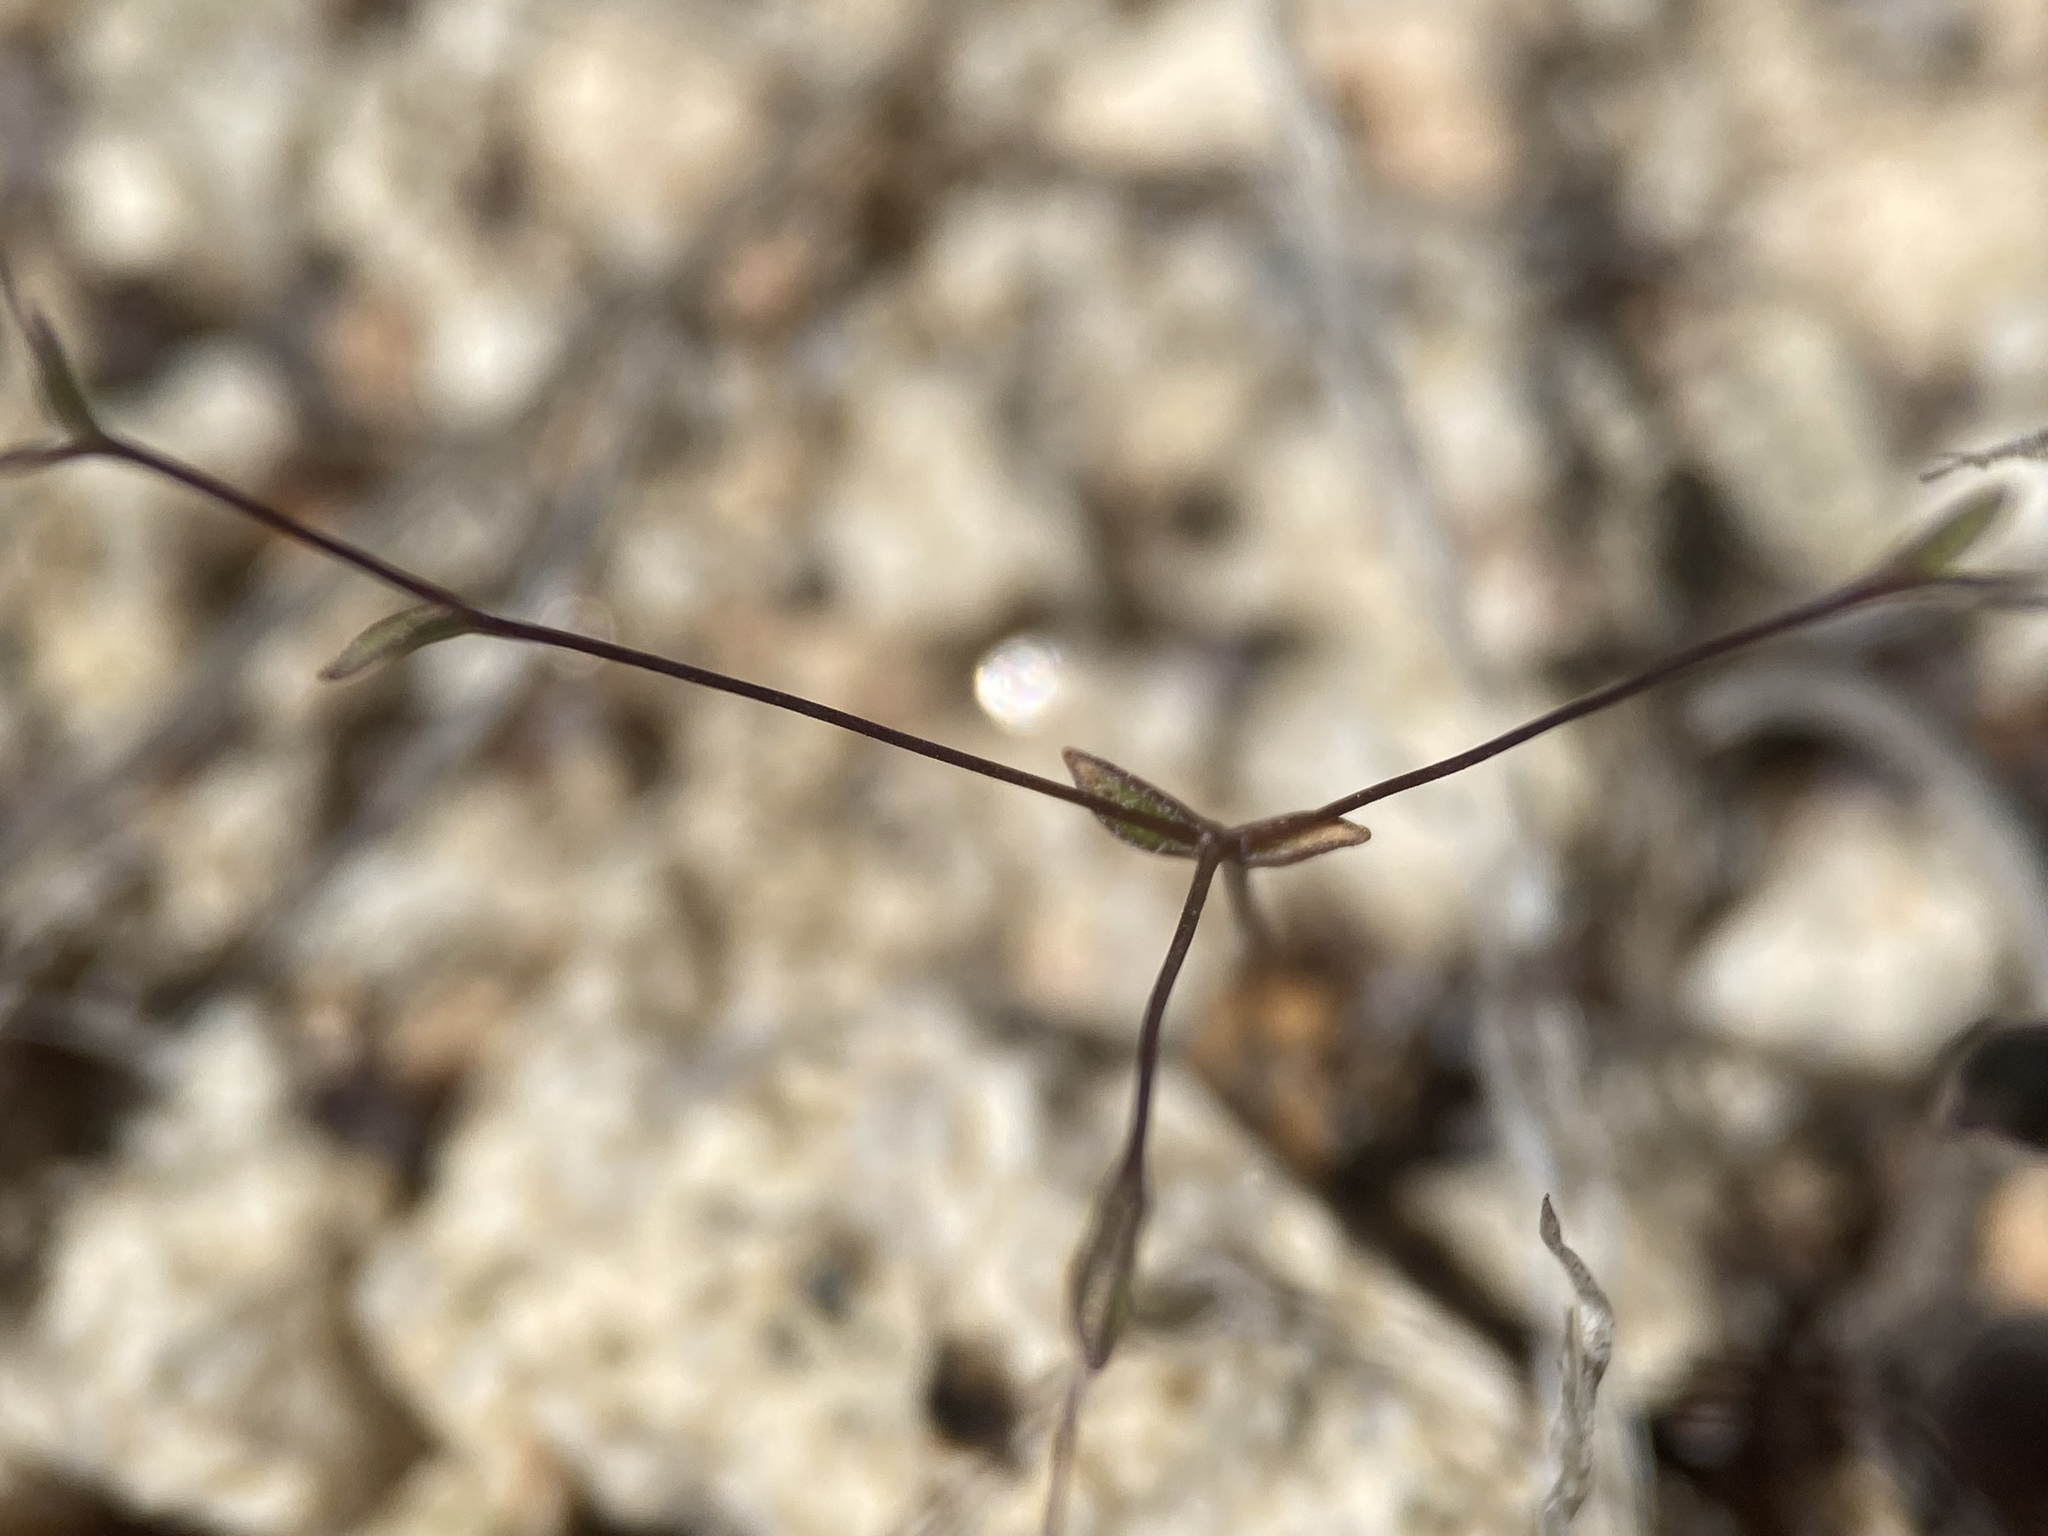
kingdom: Plantae
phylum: Tracheophyta
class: Magnoliopsida
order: Asterales
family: Campanulaceae
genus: Nemacladus
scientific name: Nemacladus sigmoideus
